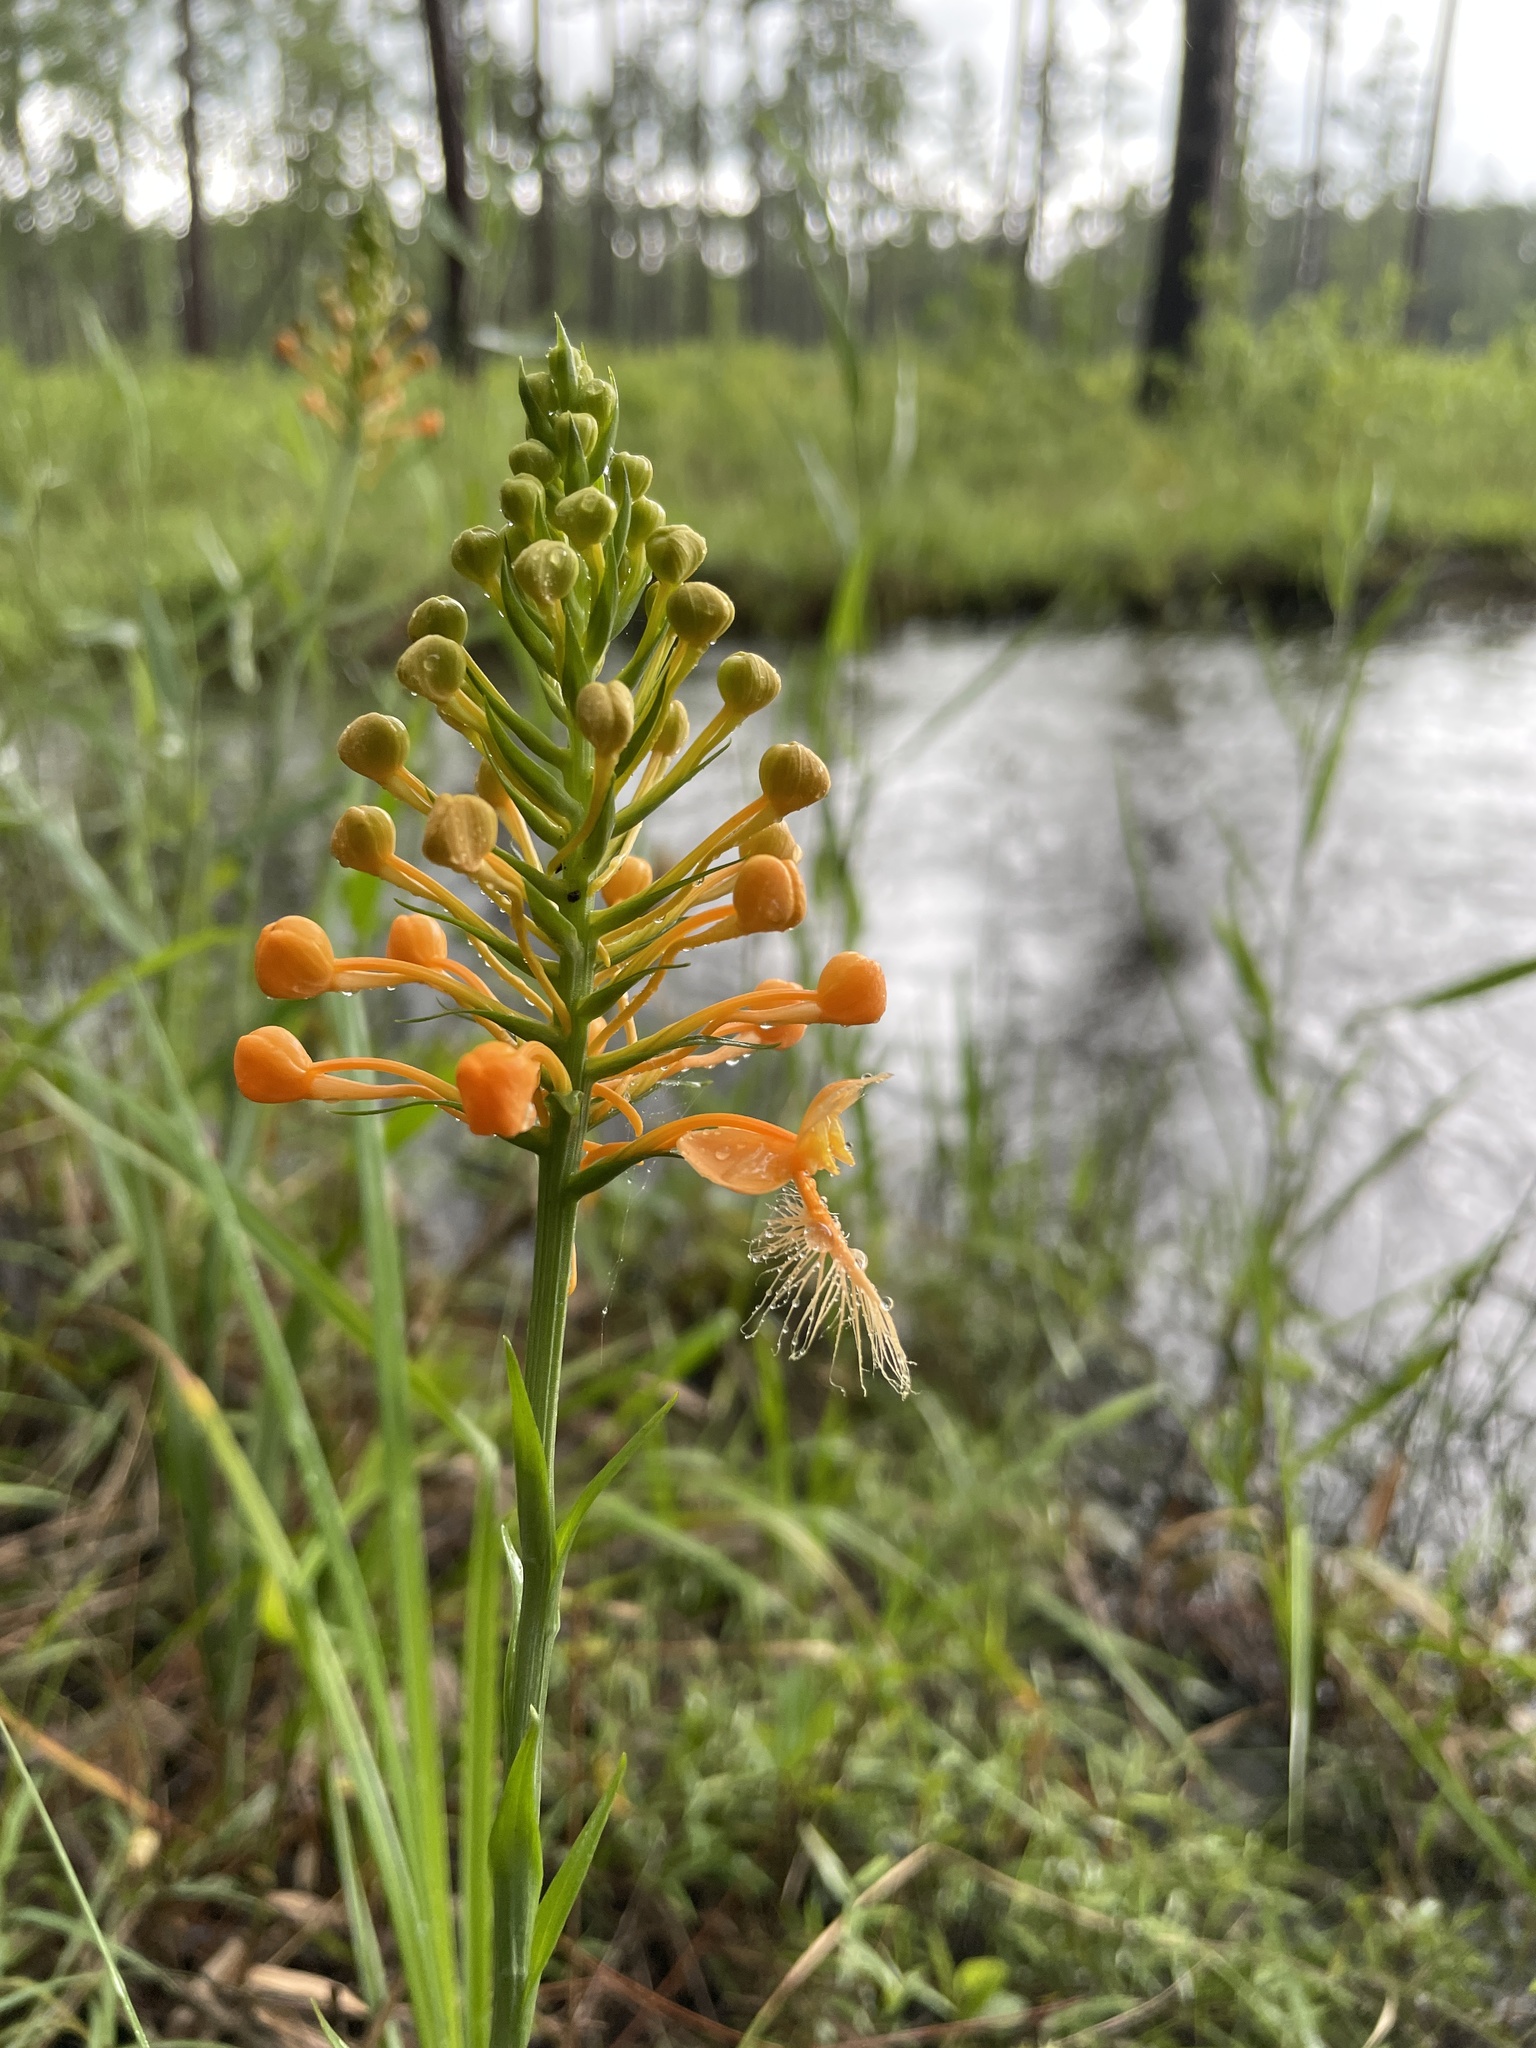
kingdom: Plantae
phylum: Tracheophyta
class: Liliopsida
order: Asparagales
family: Orchidaceae
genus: Platanthera
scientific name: Platanthera ciliaris
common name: Yellow fringed orchid
